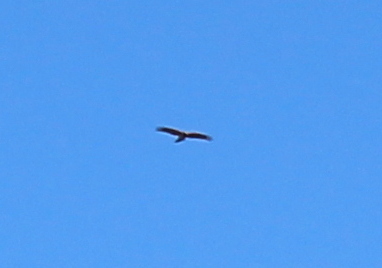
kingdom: Animalia
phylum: Chordata
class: Aves
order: Accipitriformes
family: Accipitridae
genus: Buteo
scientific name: Buteo lineatus
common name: Red-shouldered hawk
